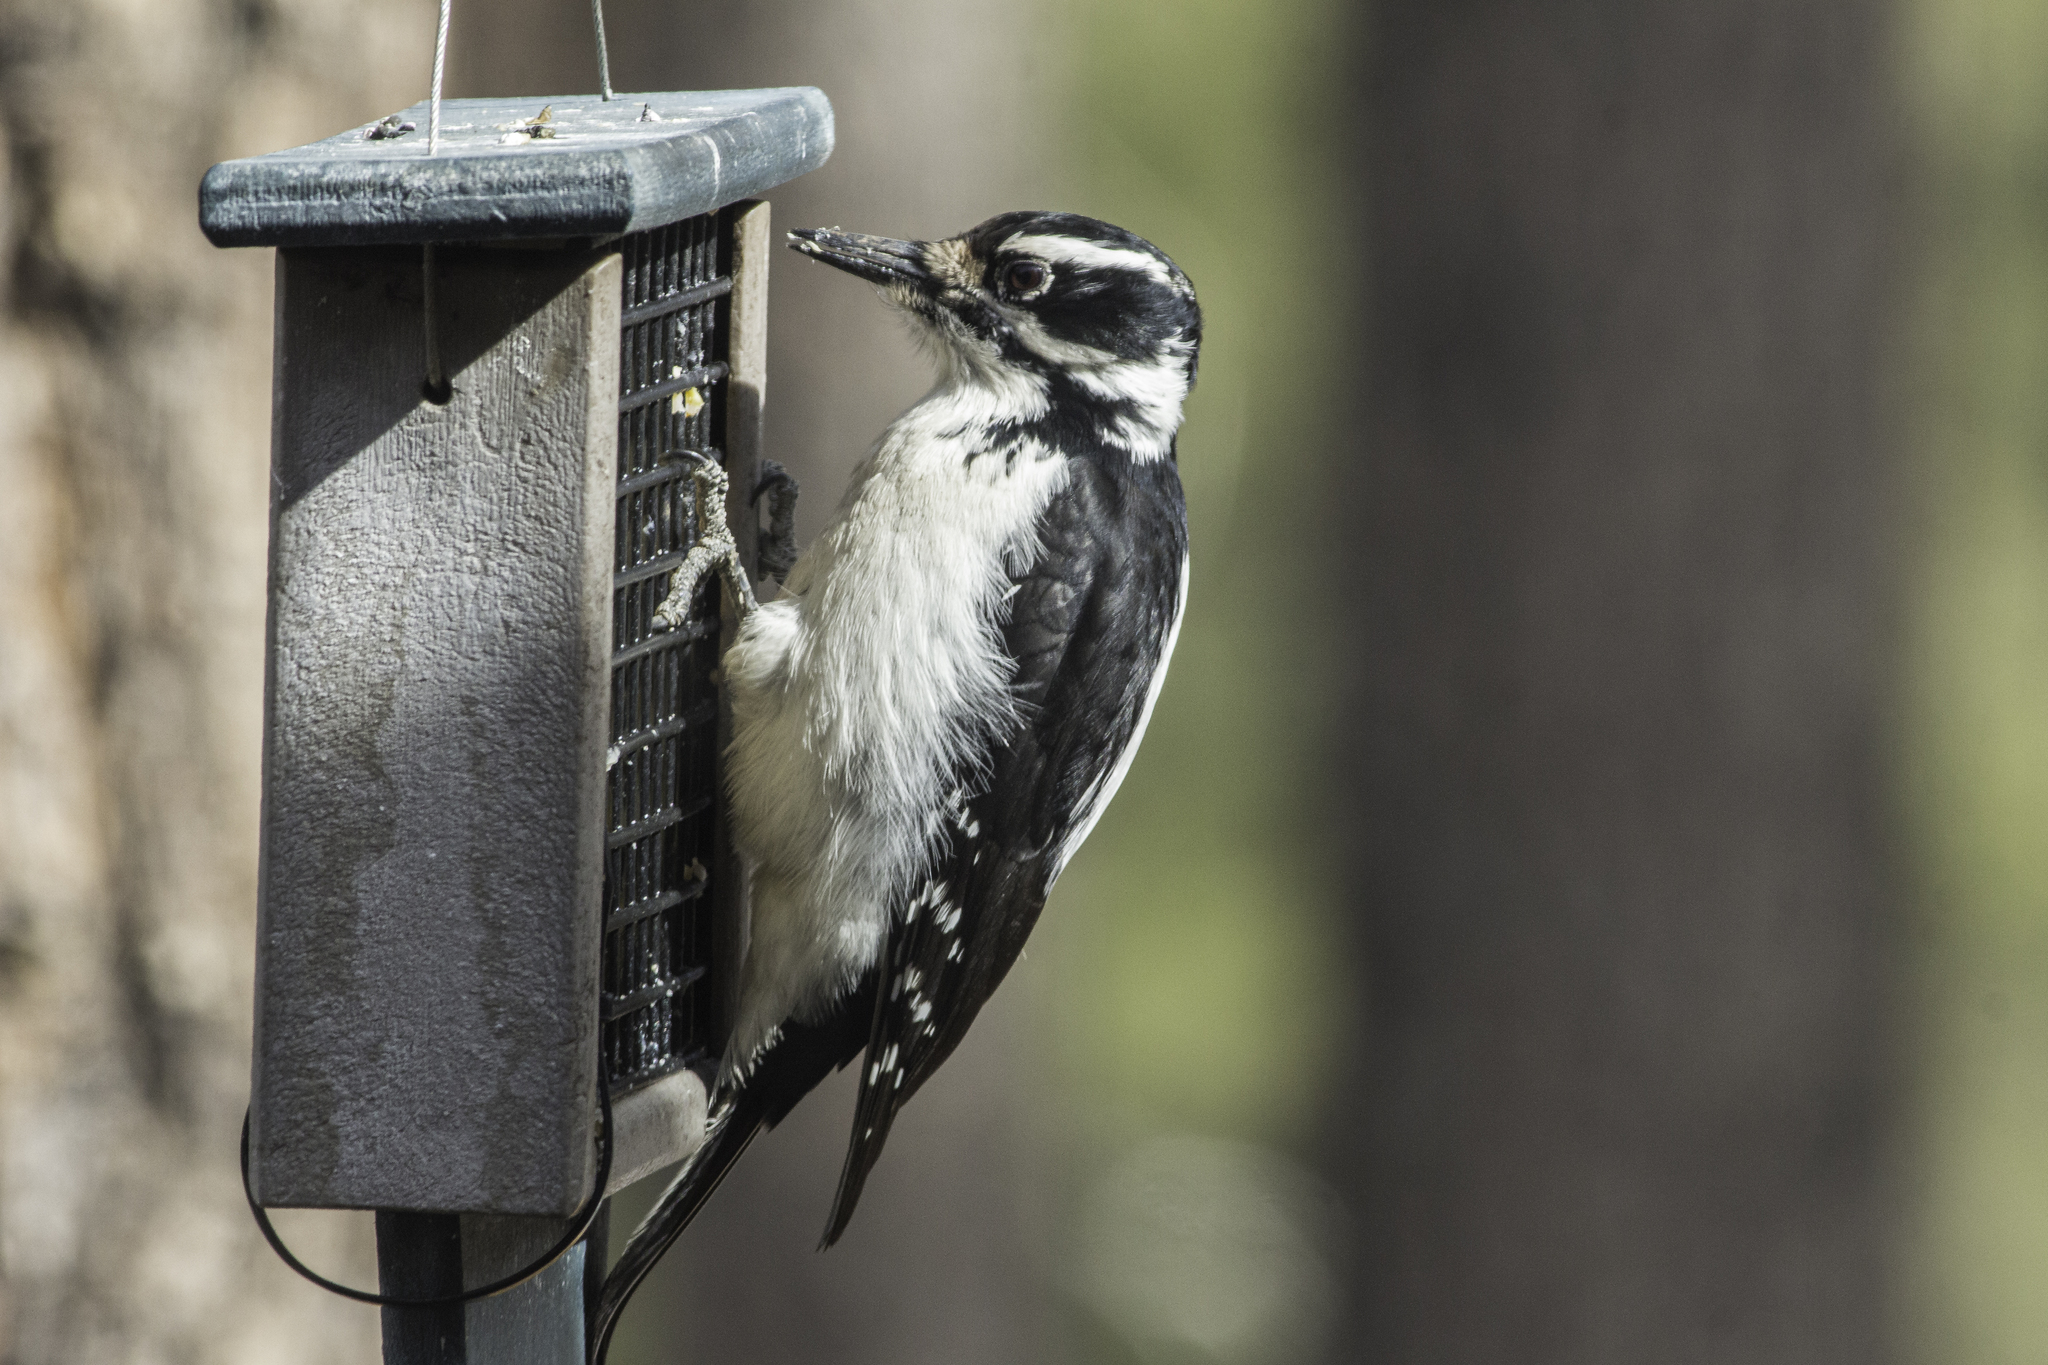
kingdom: Animalia
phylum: Chordata
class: Aves
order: Piciformes
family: Picidae
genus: Leuconotopicus
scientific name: Leuconotopicus villosus
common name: Hairy woodpecker
